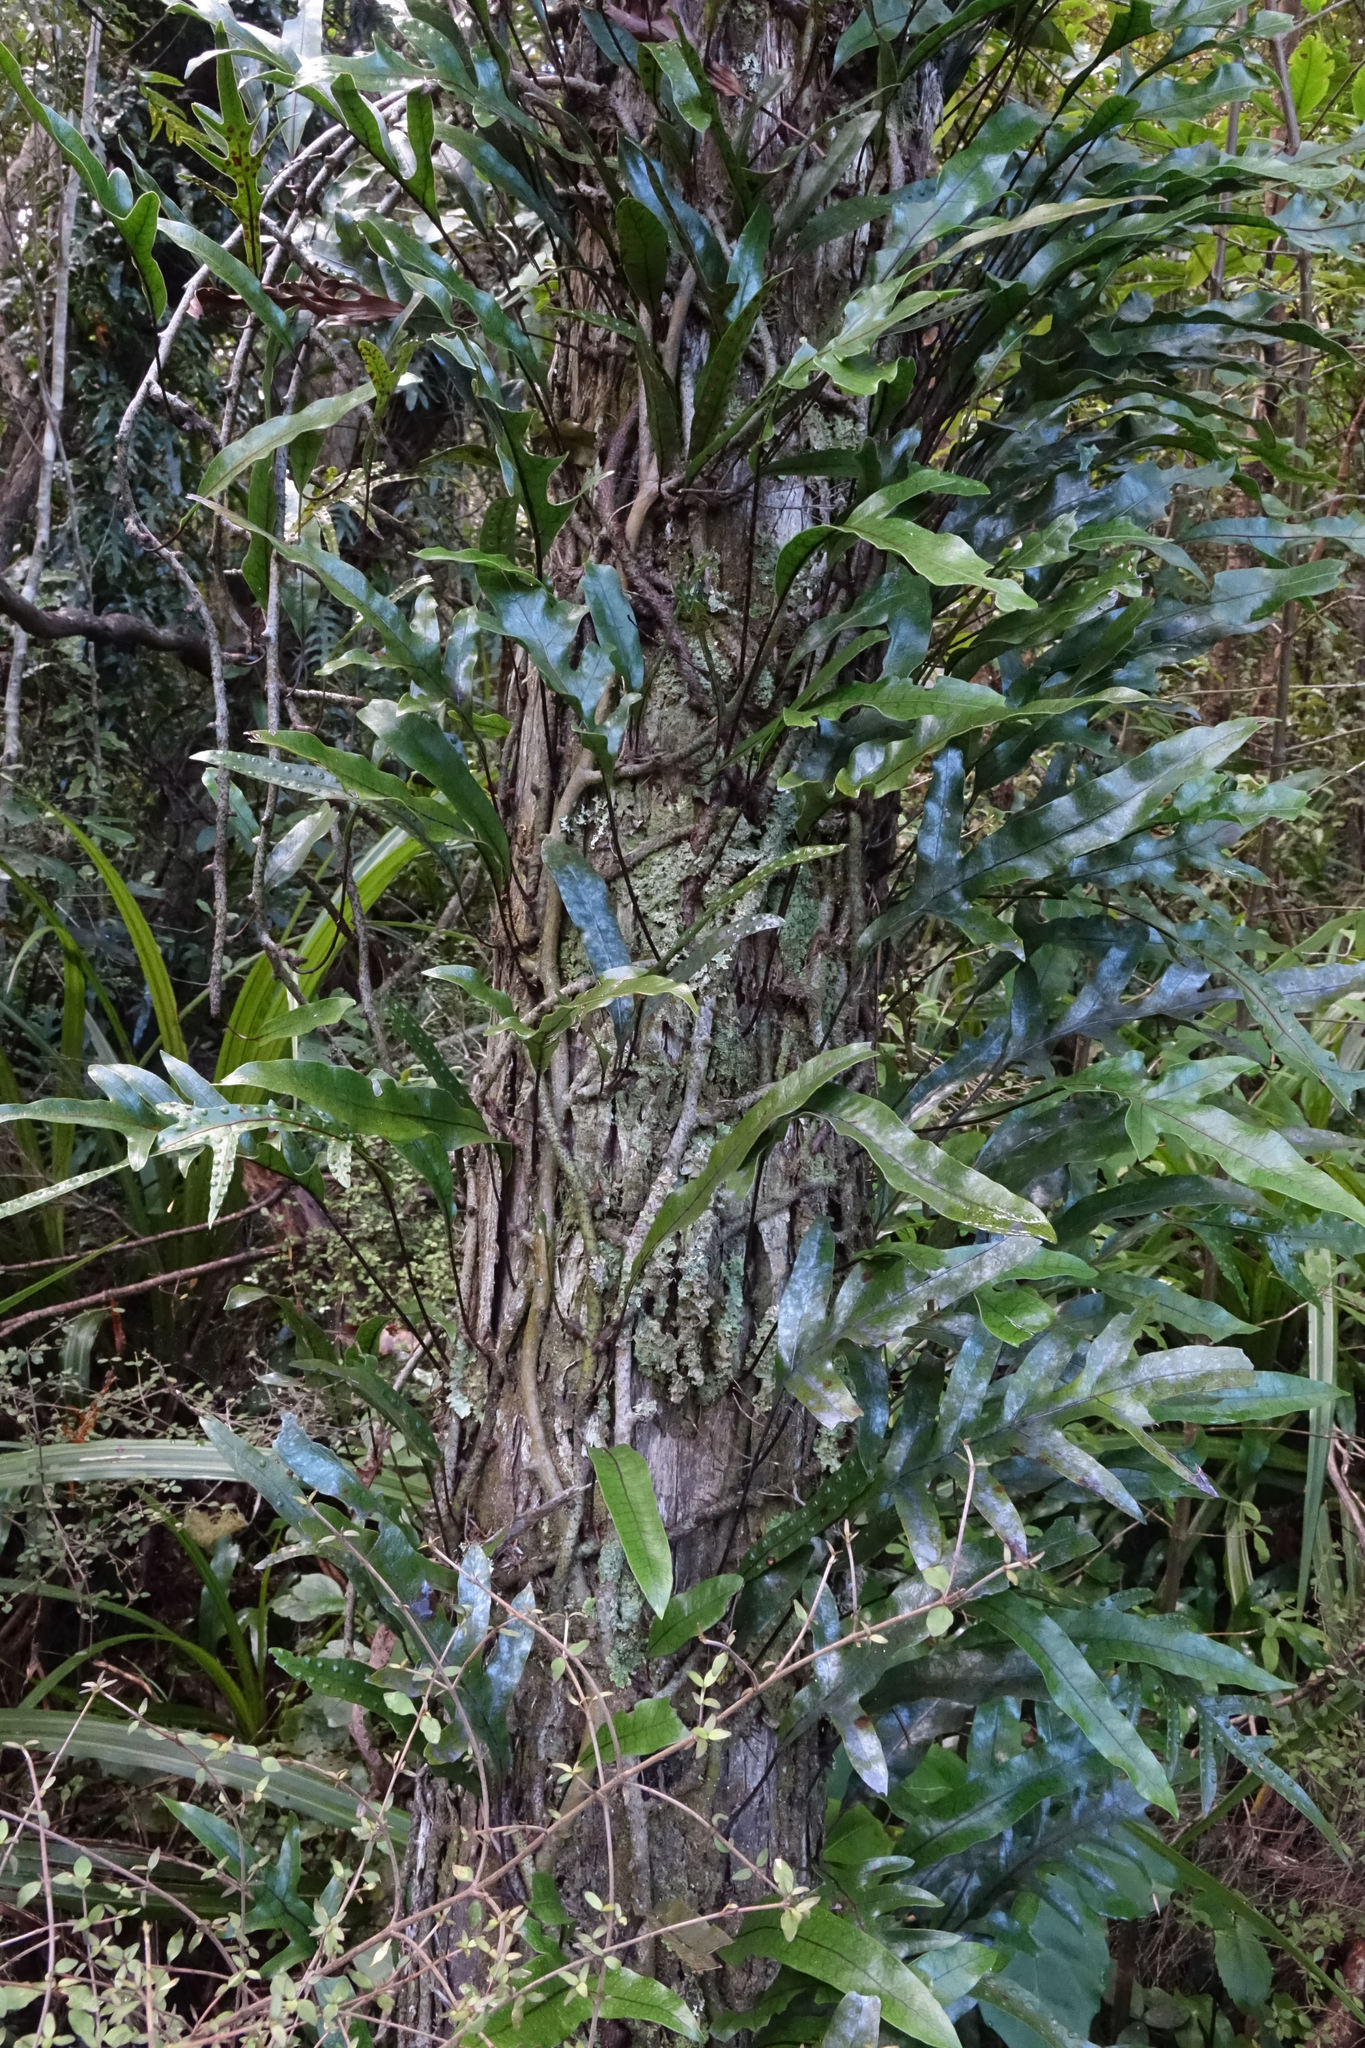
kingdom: Plantae
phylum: Tracheophyta
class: Polypodiopsida
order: Polypodiales
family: Polypodiaceae
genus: Lecanopteris
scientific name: Lecanopteris pustulata
